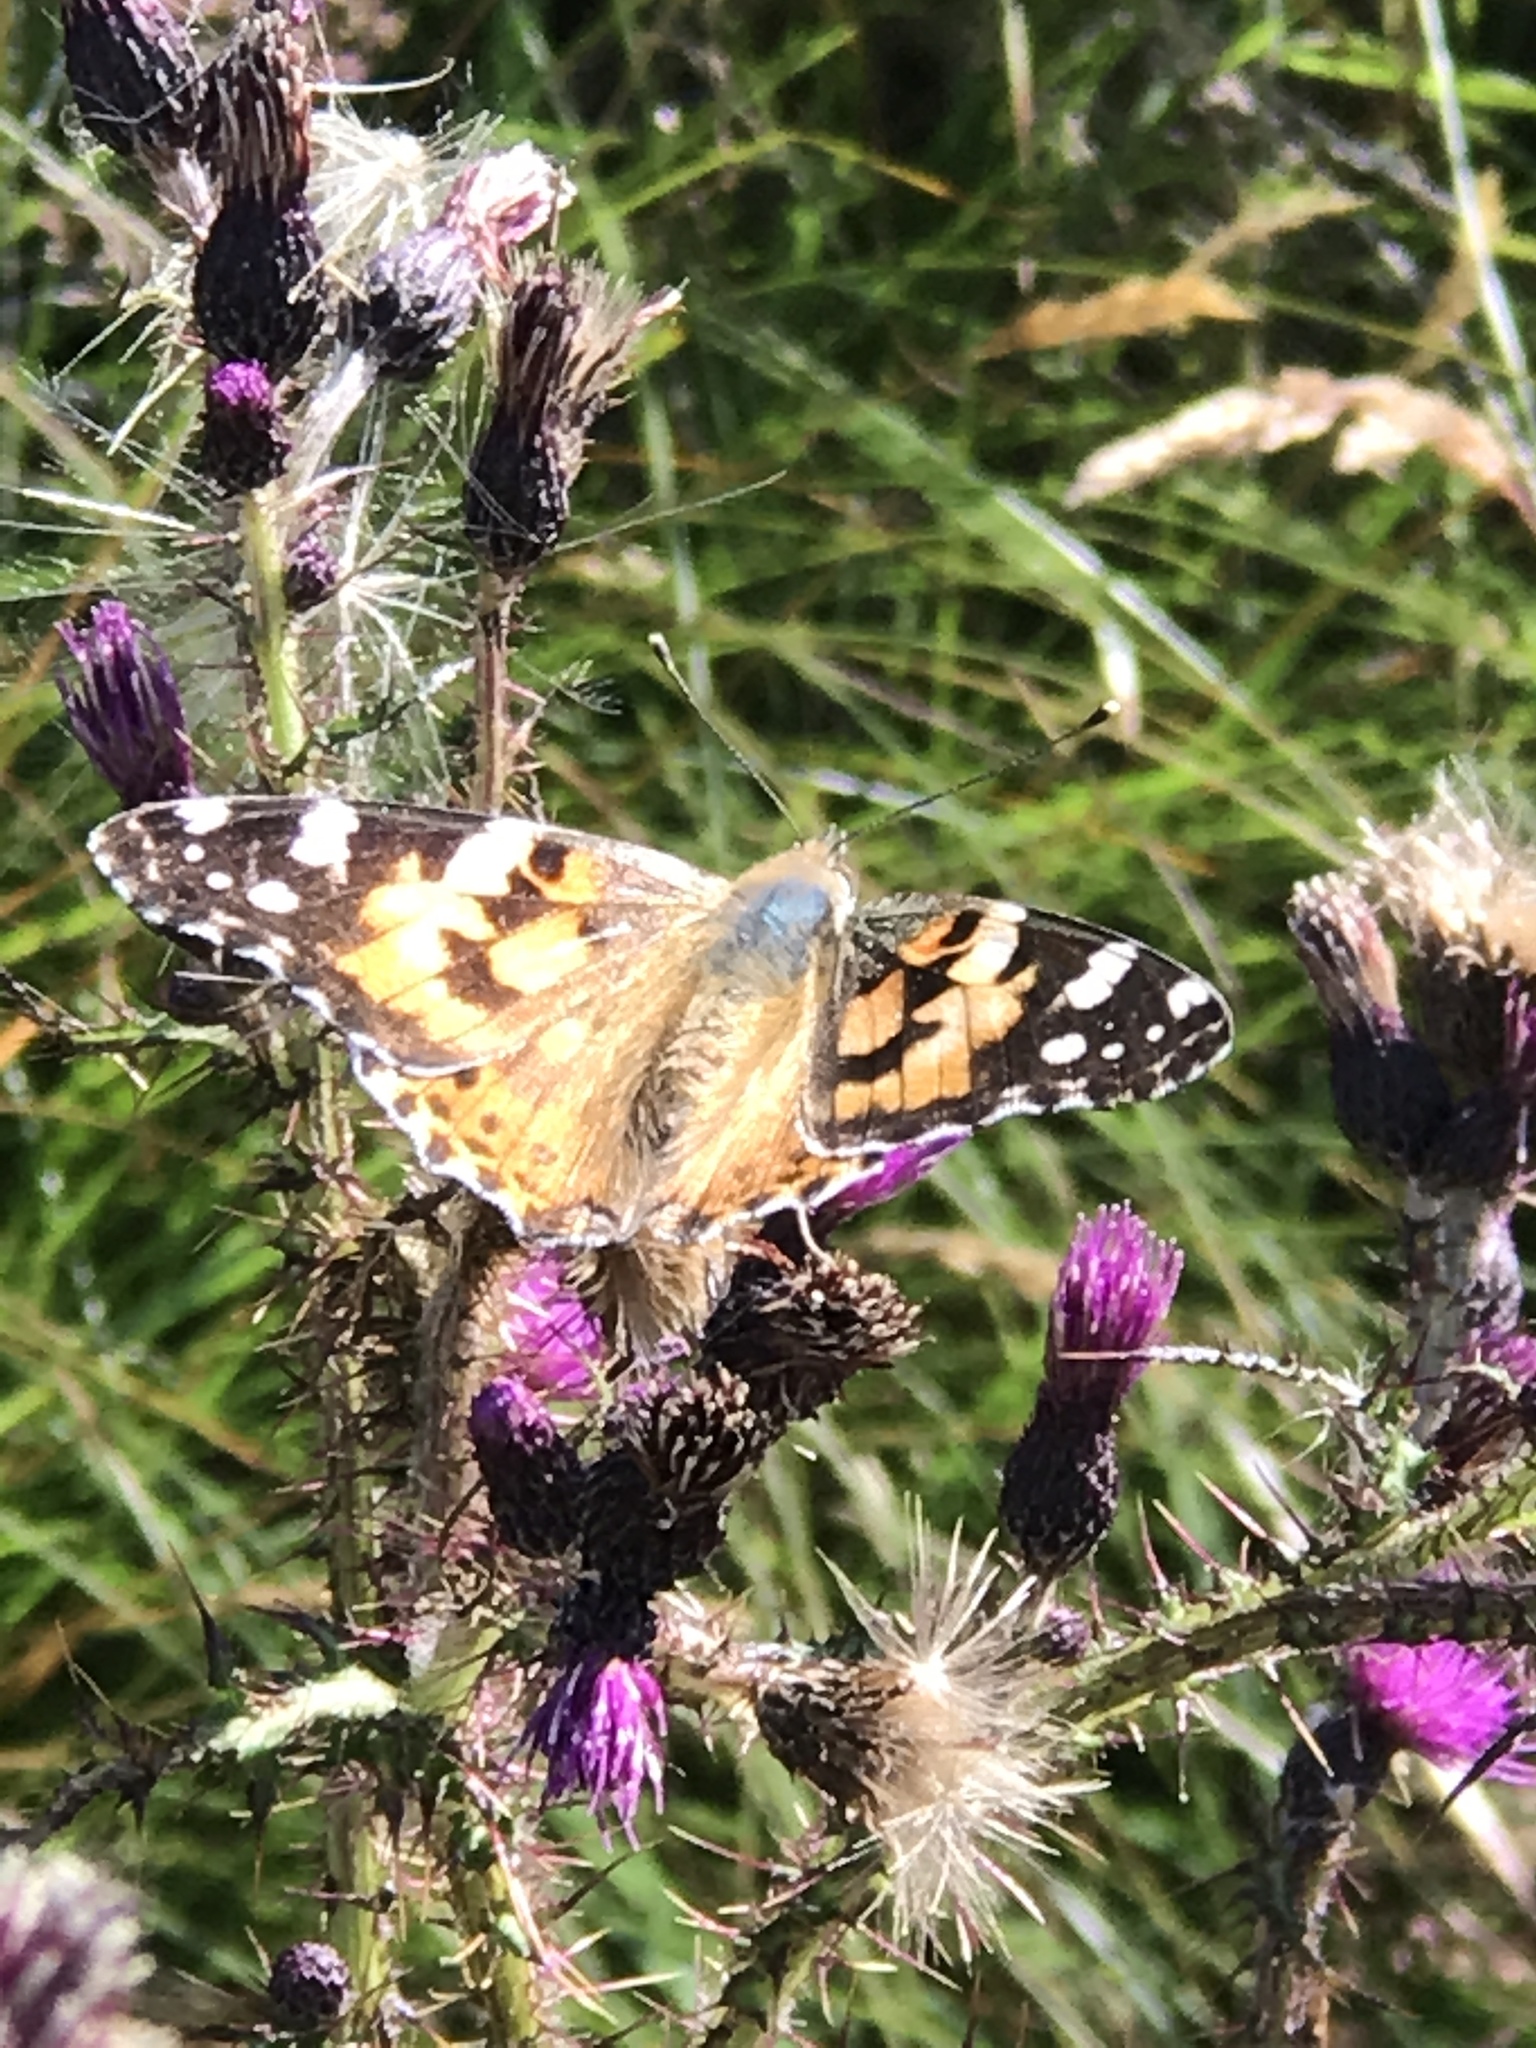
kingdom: Animalia
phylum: Arthropoda
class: Insecta
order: Lepidoptera
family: Nymphalidae
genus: Vanessa
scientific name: Vanessa cardui
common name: Painted lady
